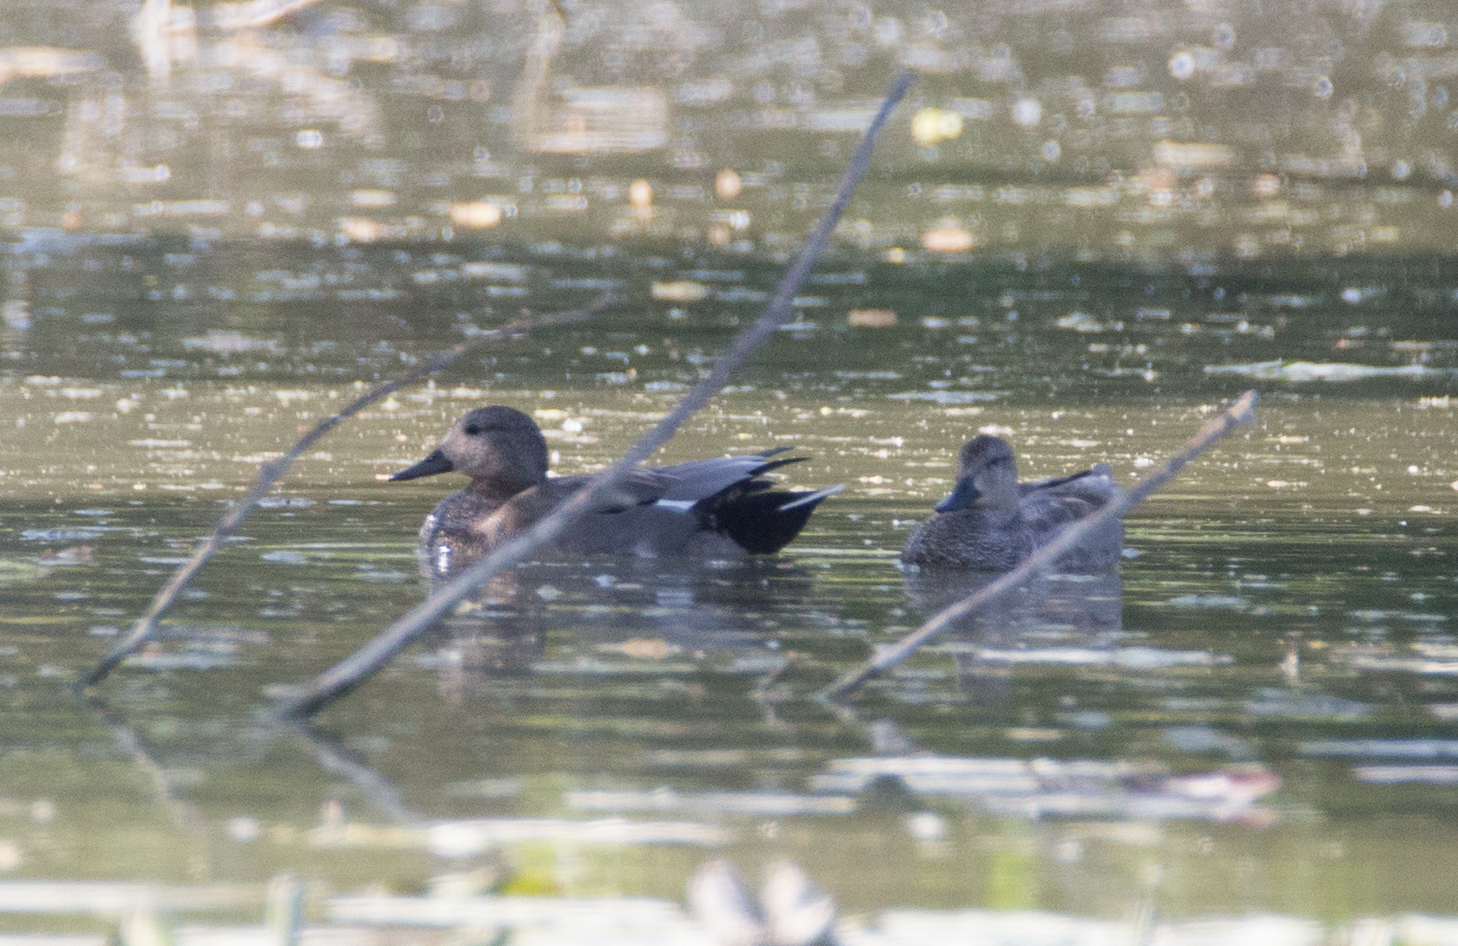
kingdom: Animalia
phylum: Chordata
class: Aves
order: Anseriformes
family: Anatidae
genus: Mareca
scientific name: Mareca strepera
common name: Gadwall
